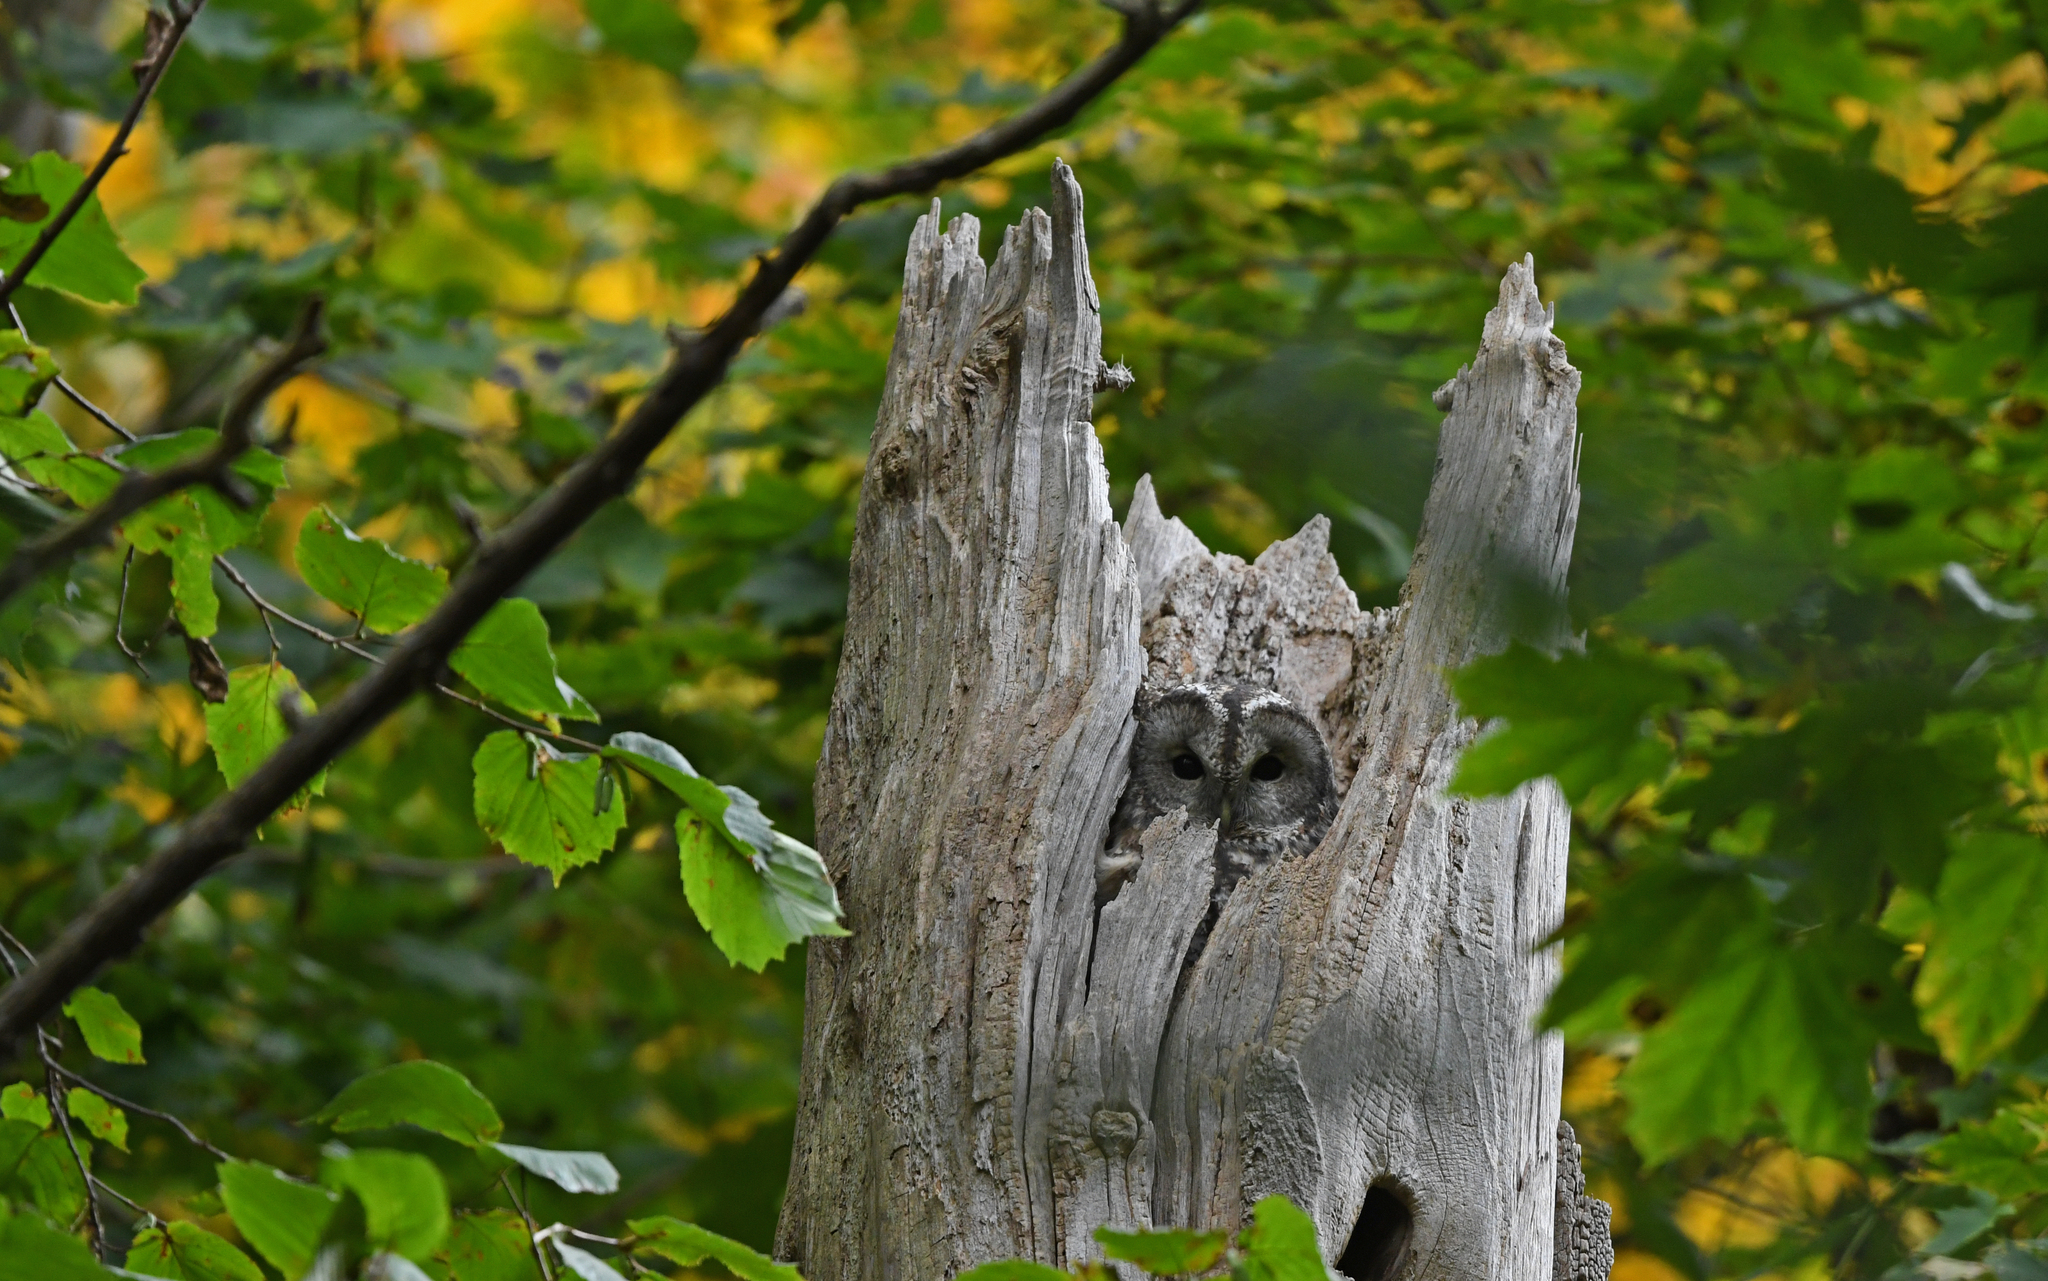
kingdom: Animalia
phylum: Chordata
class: Aves
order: Strigiformes
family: Strigidae
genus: Strix
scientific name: Strix aluco
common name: Tawny owl
